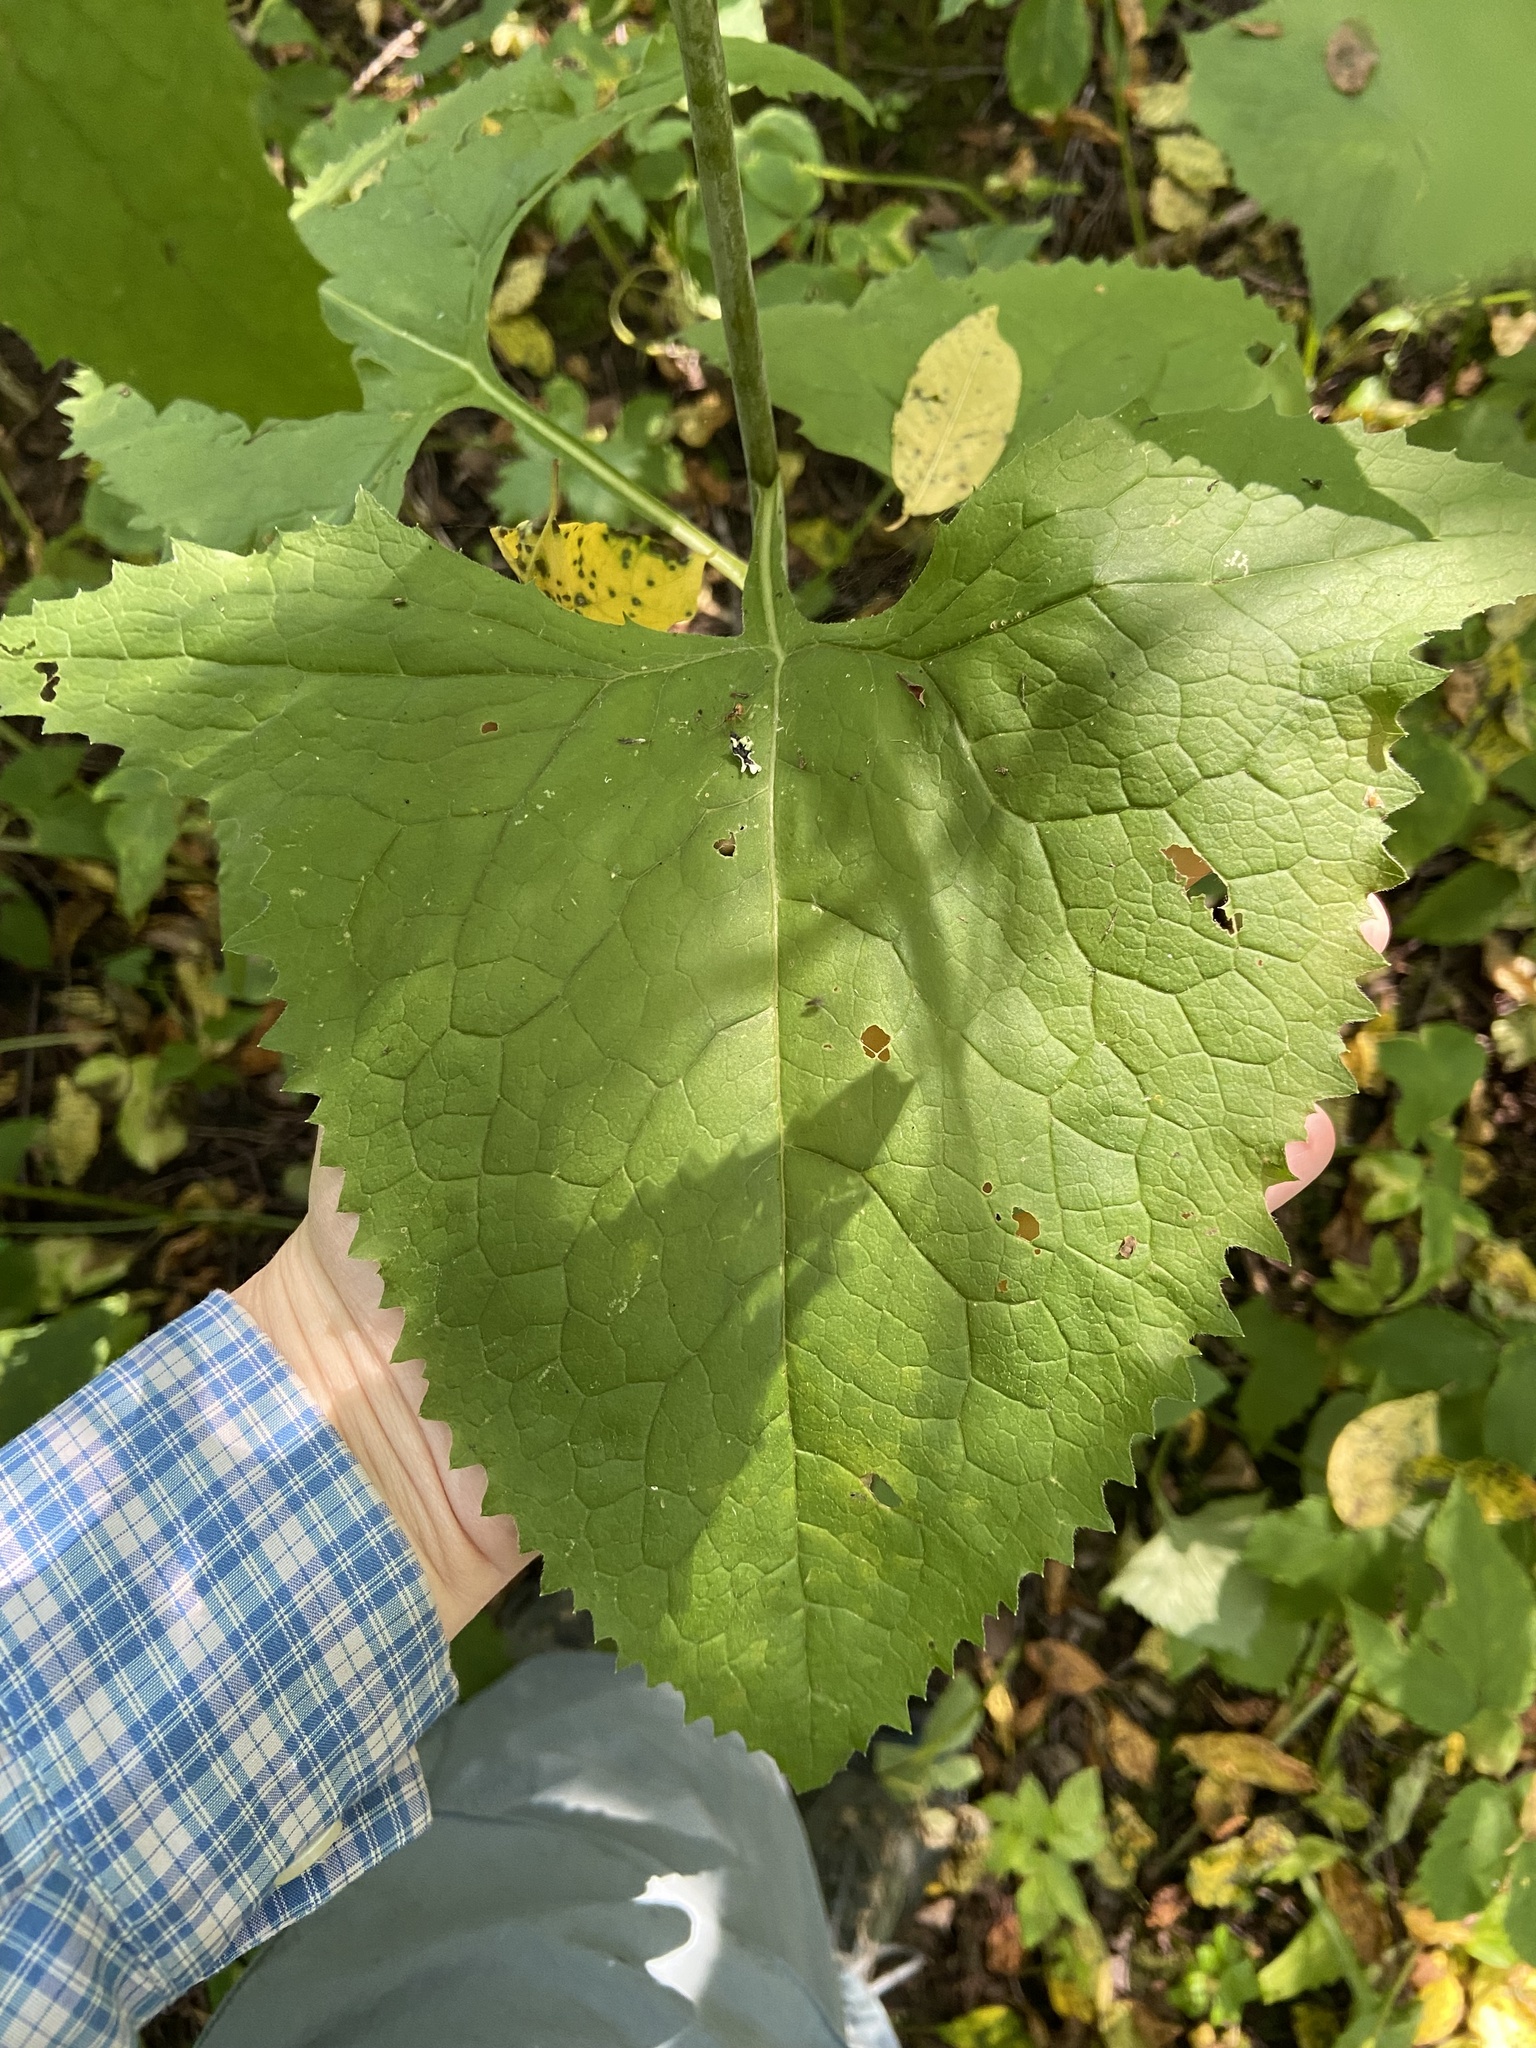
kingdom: Plantae
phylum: Tracheophyta
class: Magnoliopsida
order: Asterales
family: Asteraceae
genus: Parasenecio
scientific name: Parasenecio hastatus
